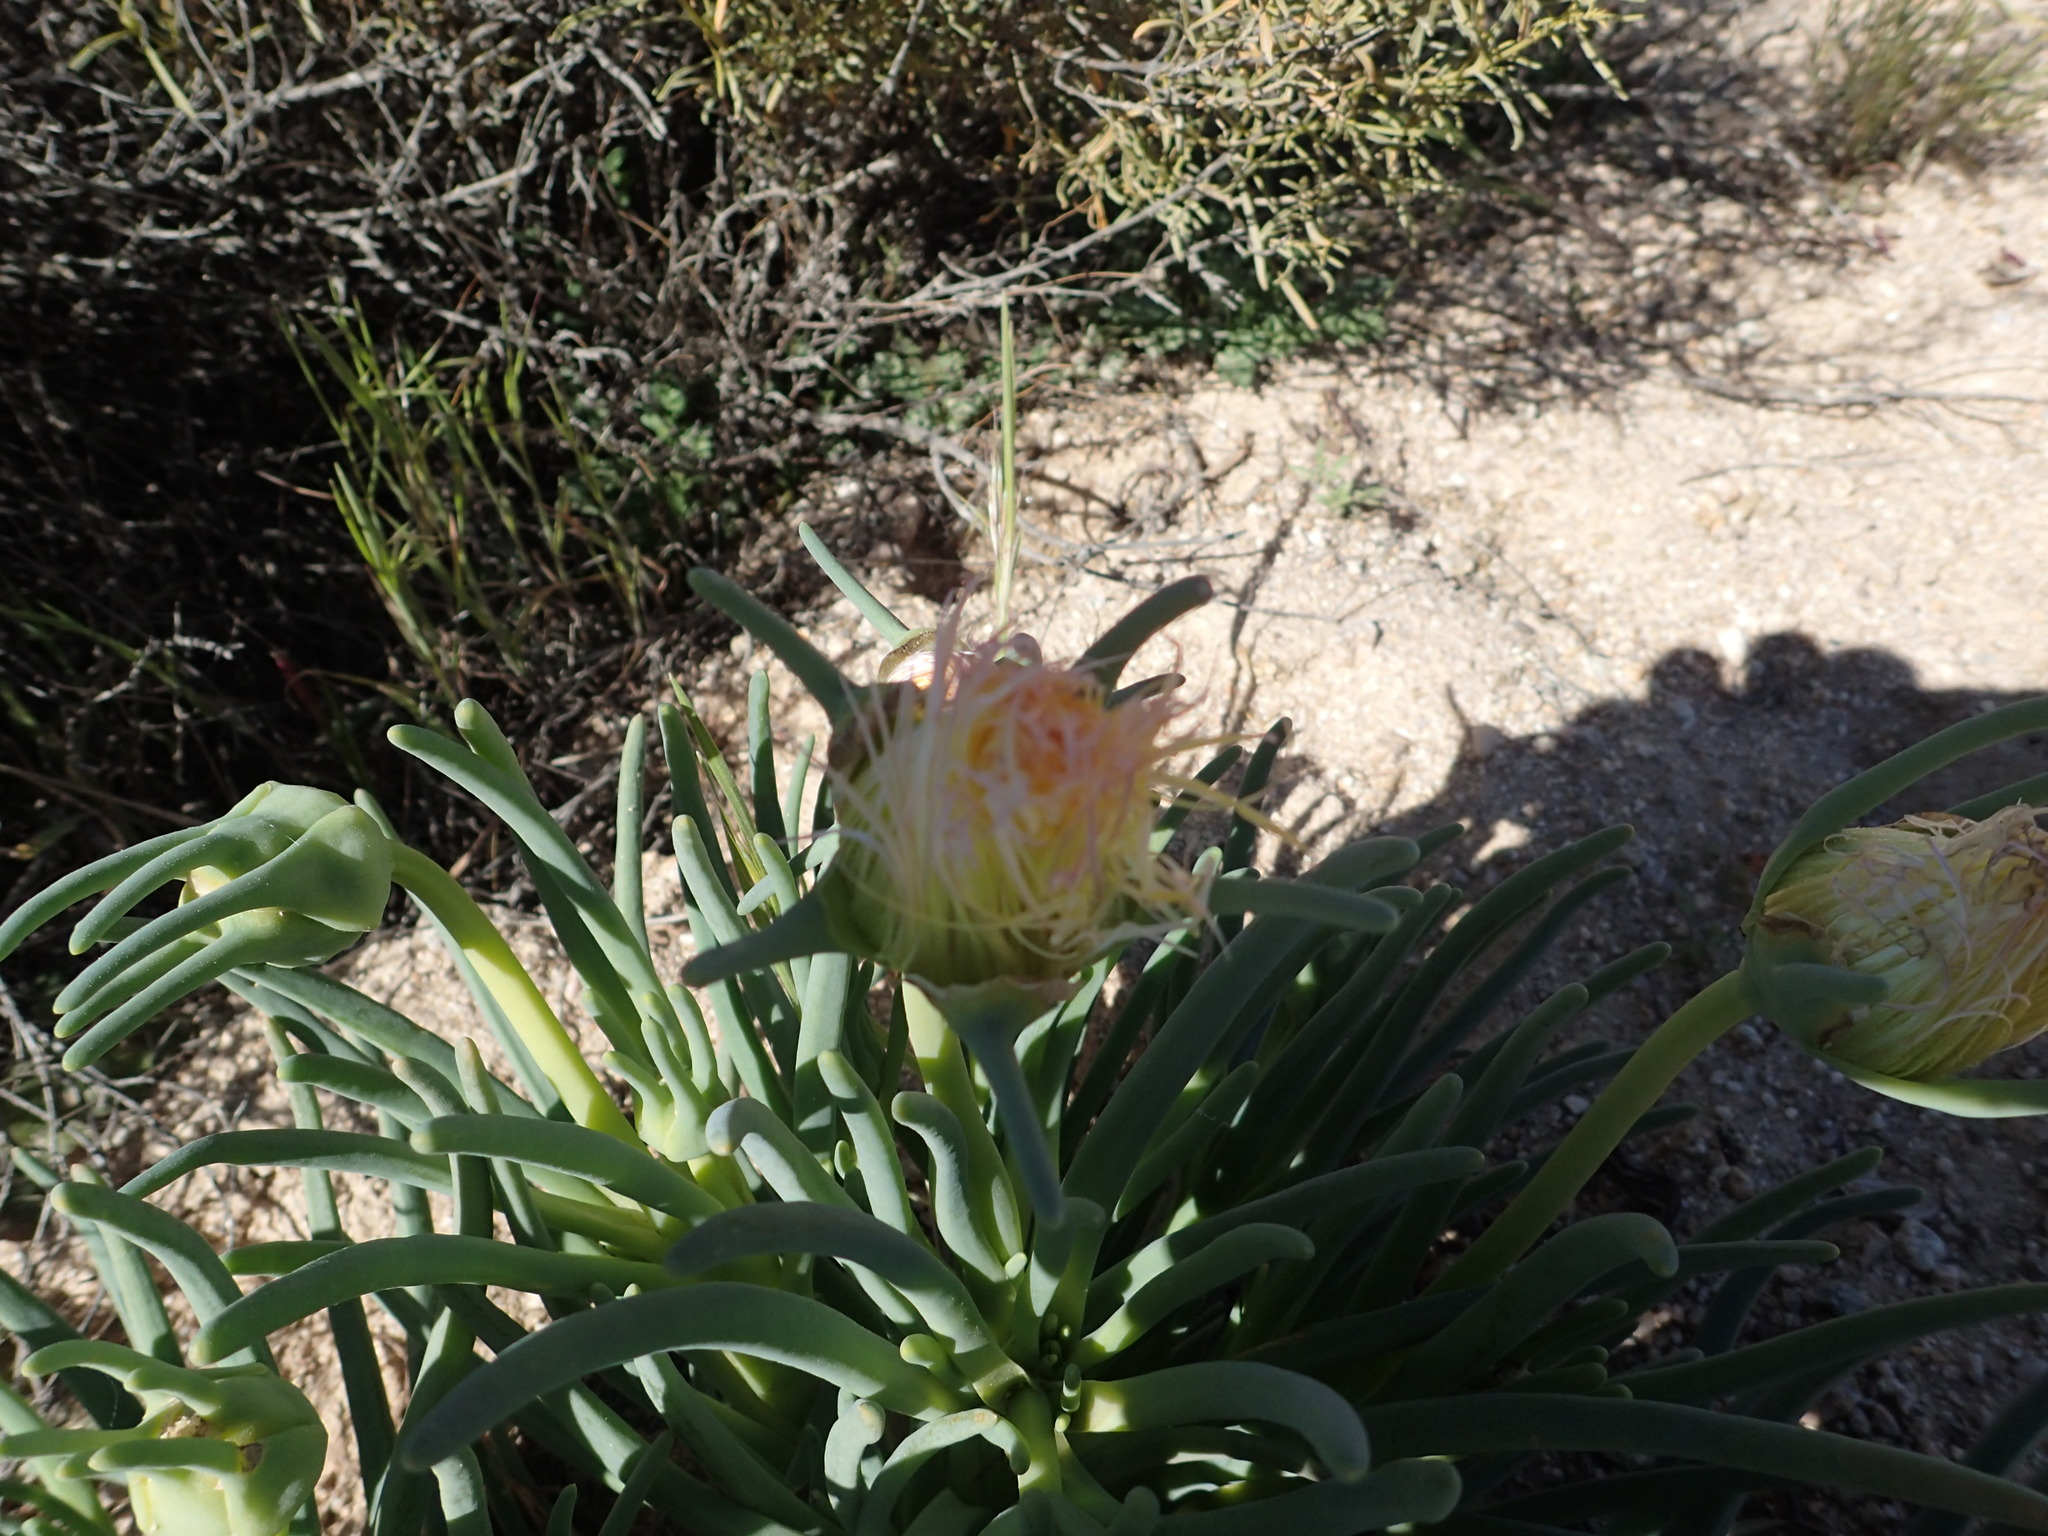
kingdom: Plantae
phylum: Tracheophyta
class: Magnoliopsida
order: Caryophyllales
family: Aizoaceae
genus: Conicosia
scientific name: Conicosia pugioniformis
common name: Narrow-leaved iceplant
